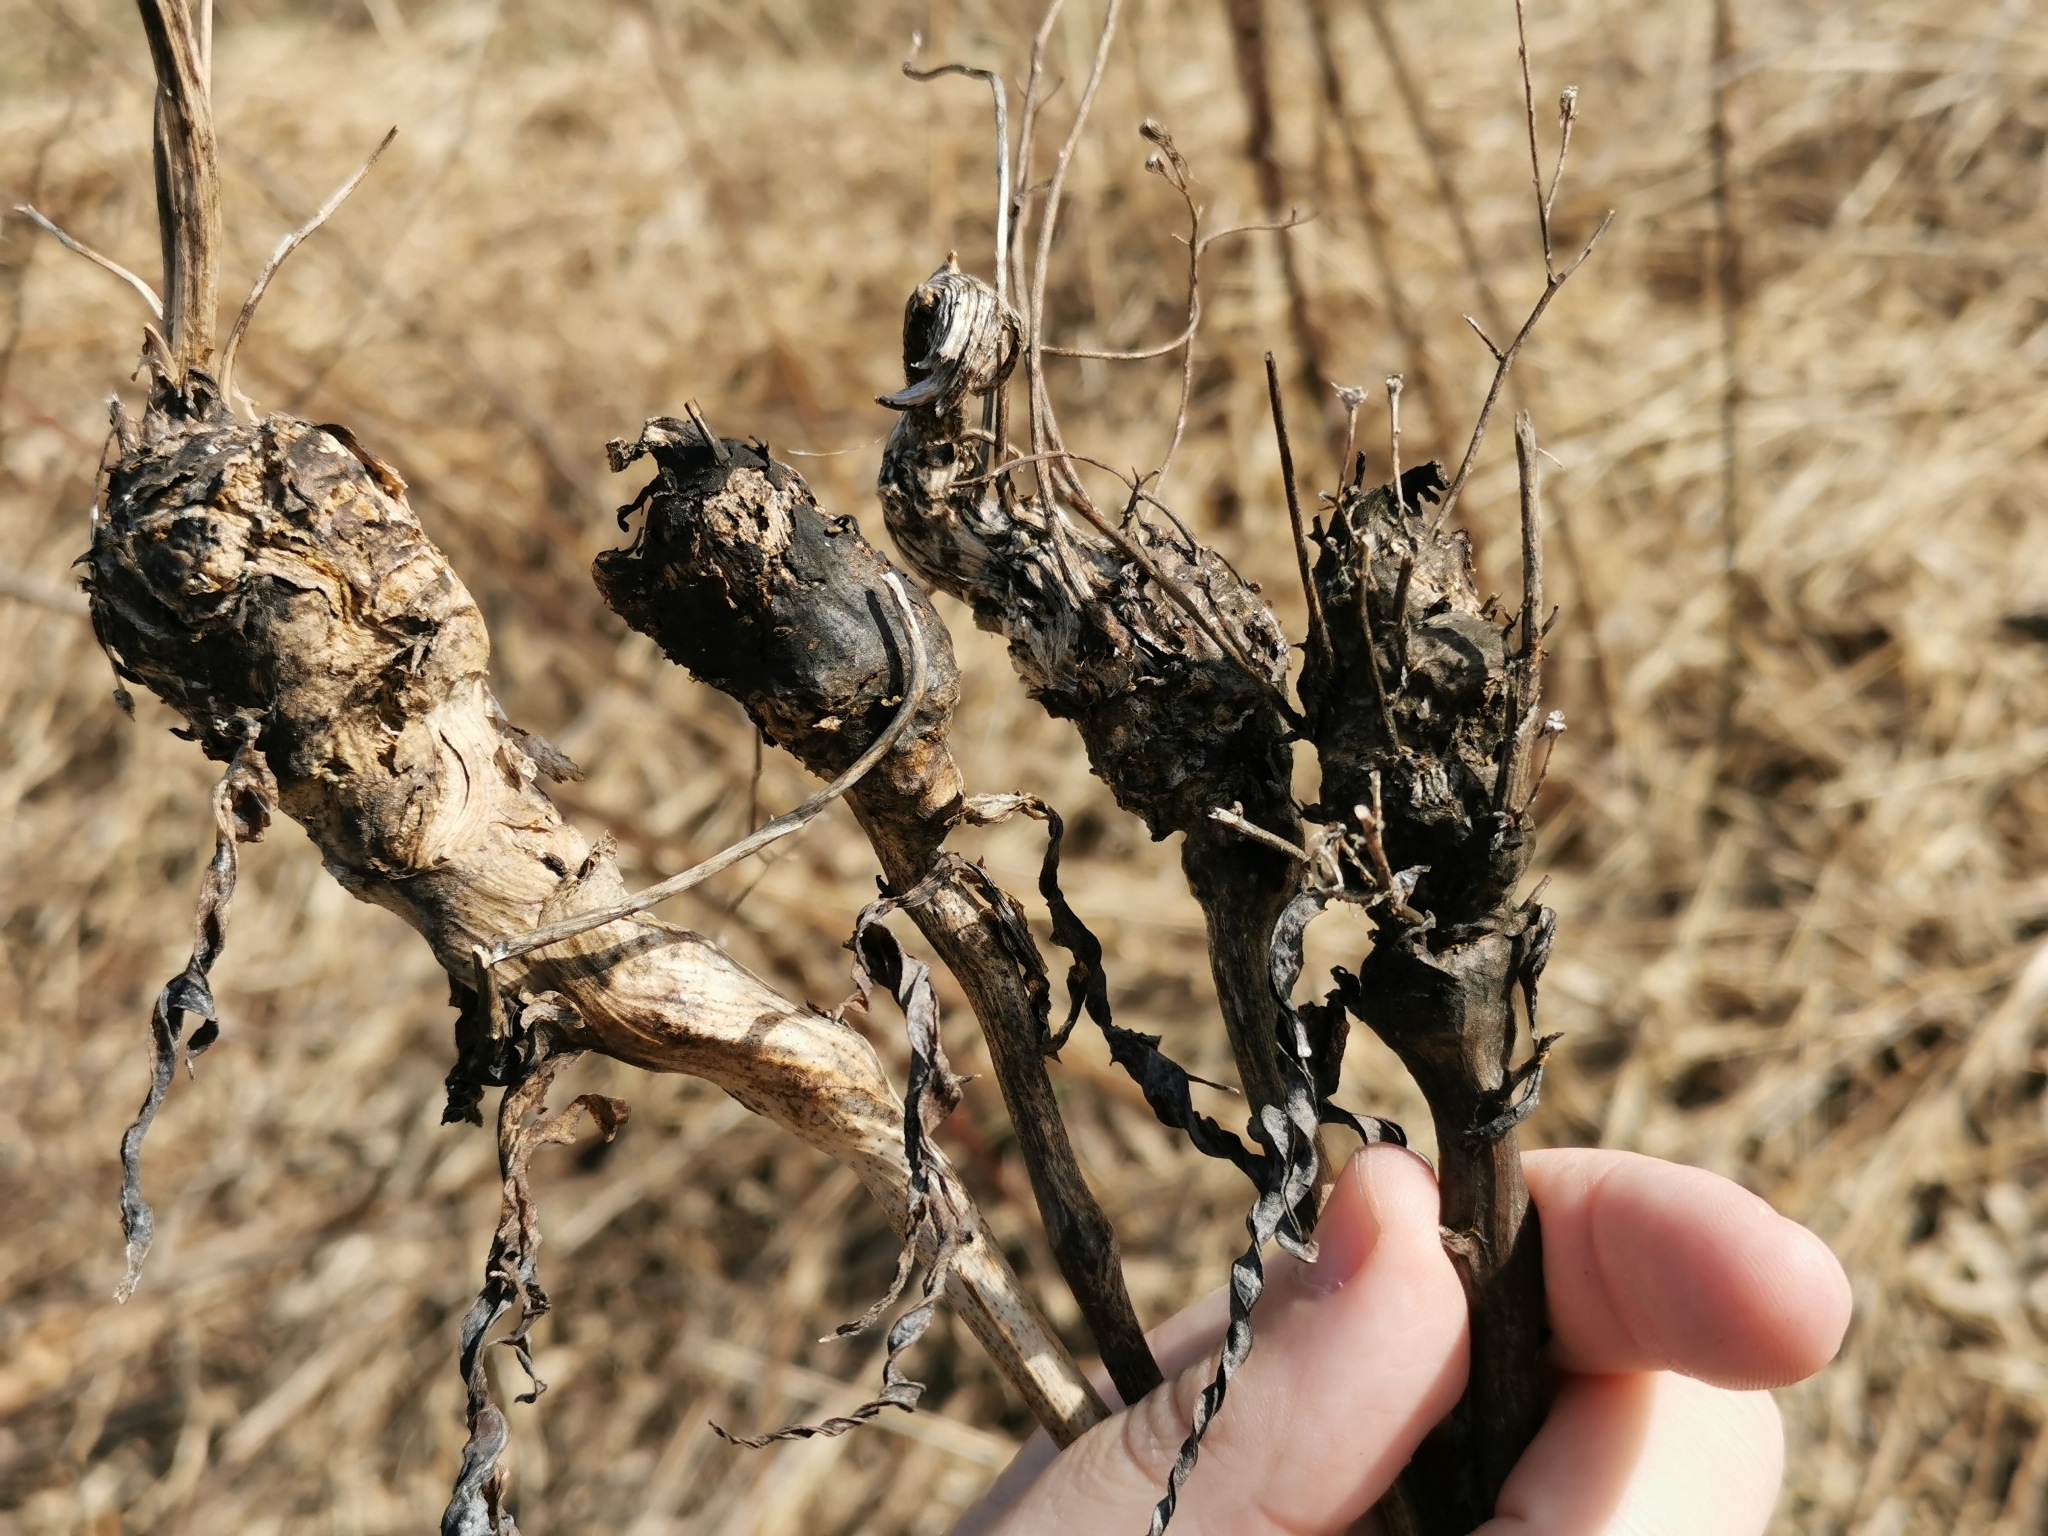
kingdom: Animalia
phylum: Arthropoda
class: Insecta
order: Hymenoptera
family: Cynipidae
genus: Aulacidea
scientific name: Aulacidea
